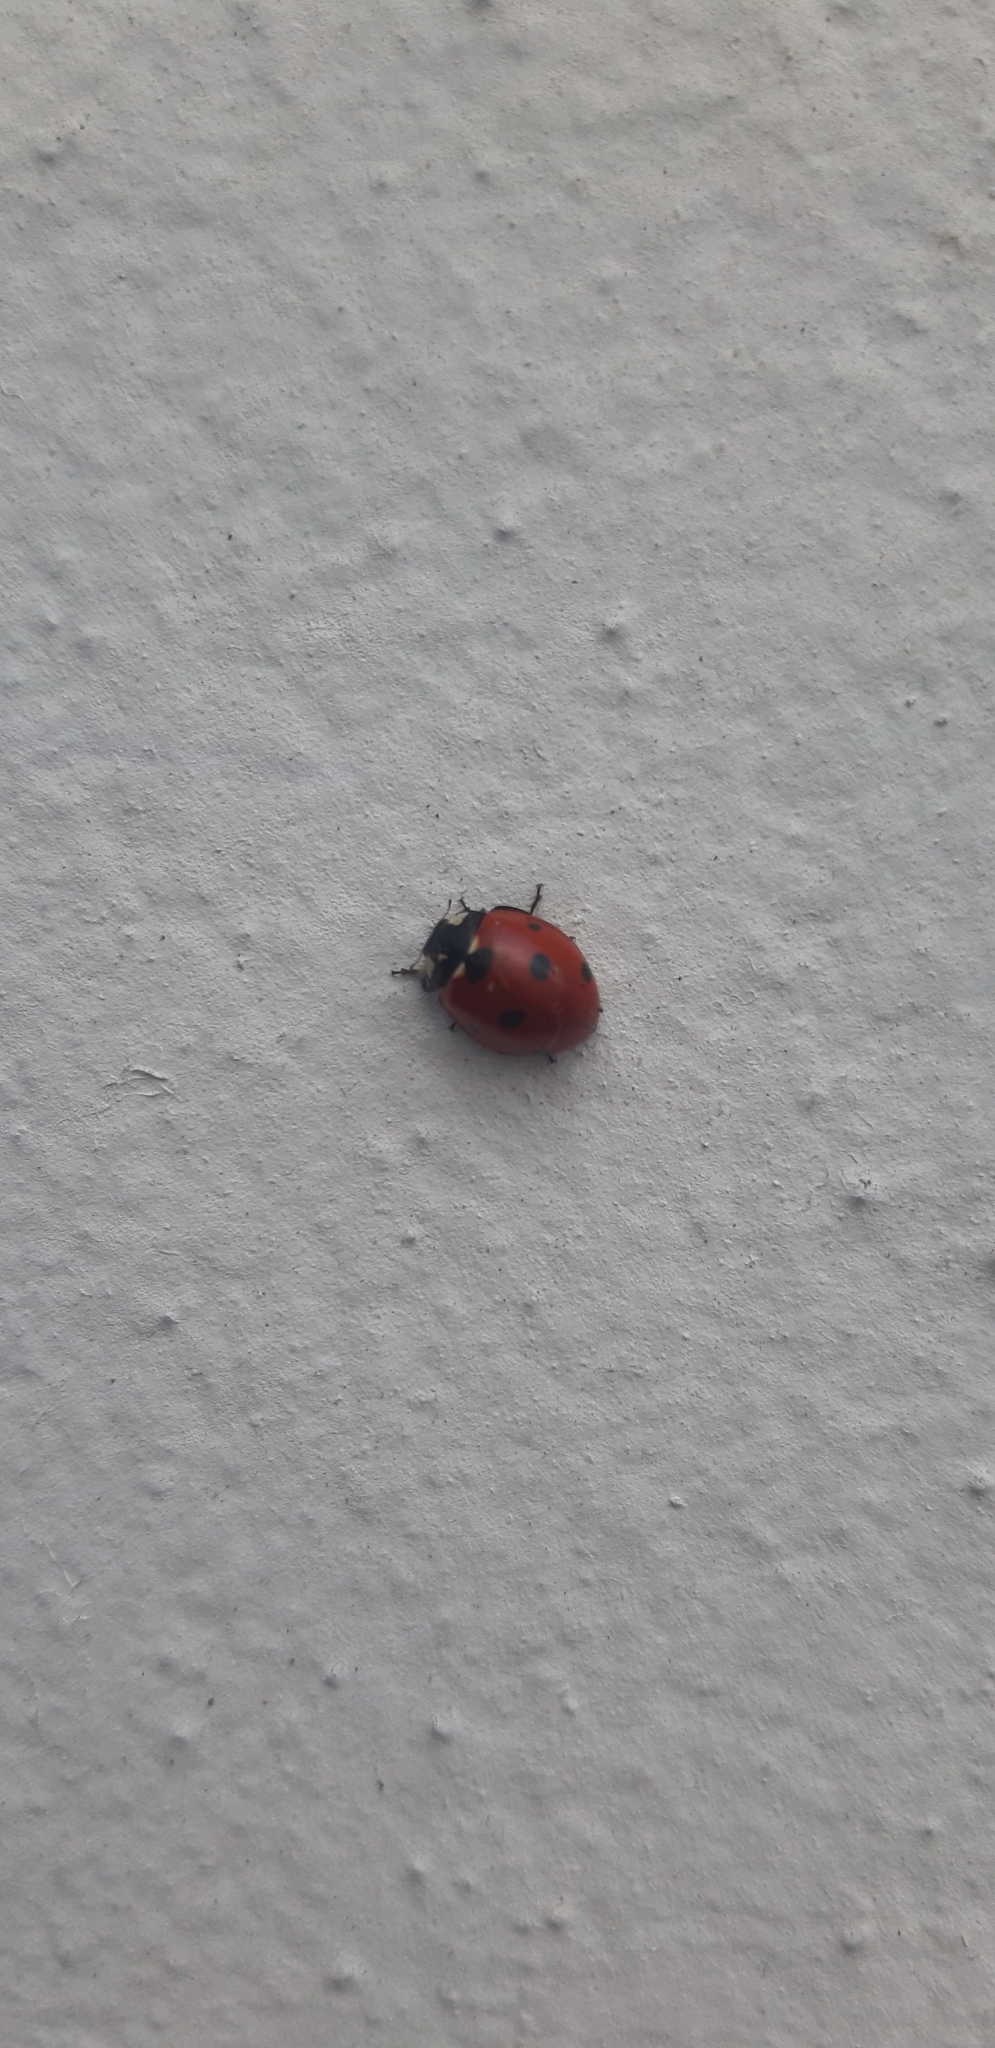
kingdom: Animalia
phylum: Arthropoda
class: Insecta
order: Coleoptera
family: Coccinellidae
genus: Coccinella
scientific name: Coccinella septempunctata
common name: Sevenspotted lady beetle
